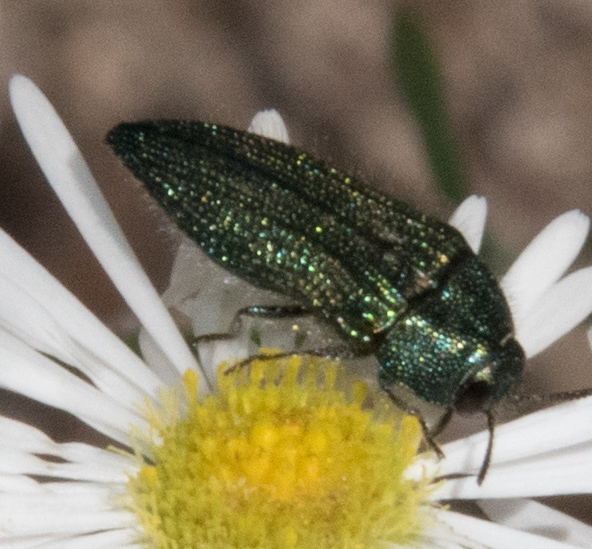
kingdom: Animalia
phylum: Arthropoda
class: Insecta
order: Coleoptera
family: Buprestidae
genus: Acmaeodera
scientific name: Acmaeodera resplendens
